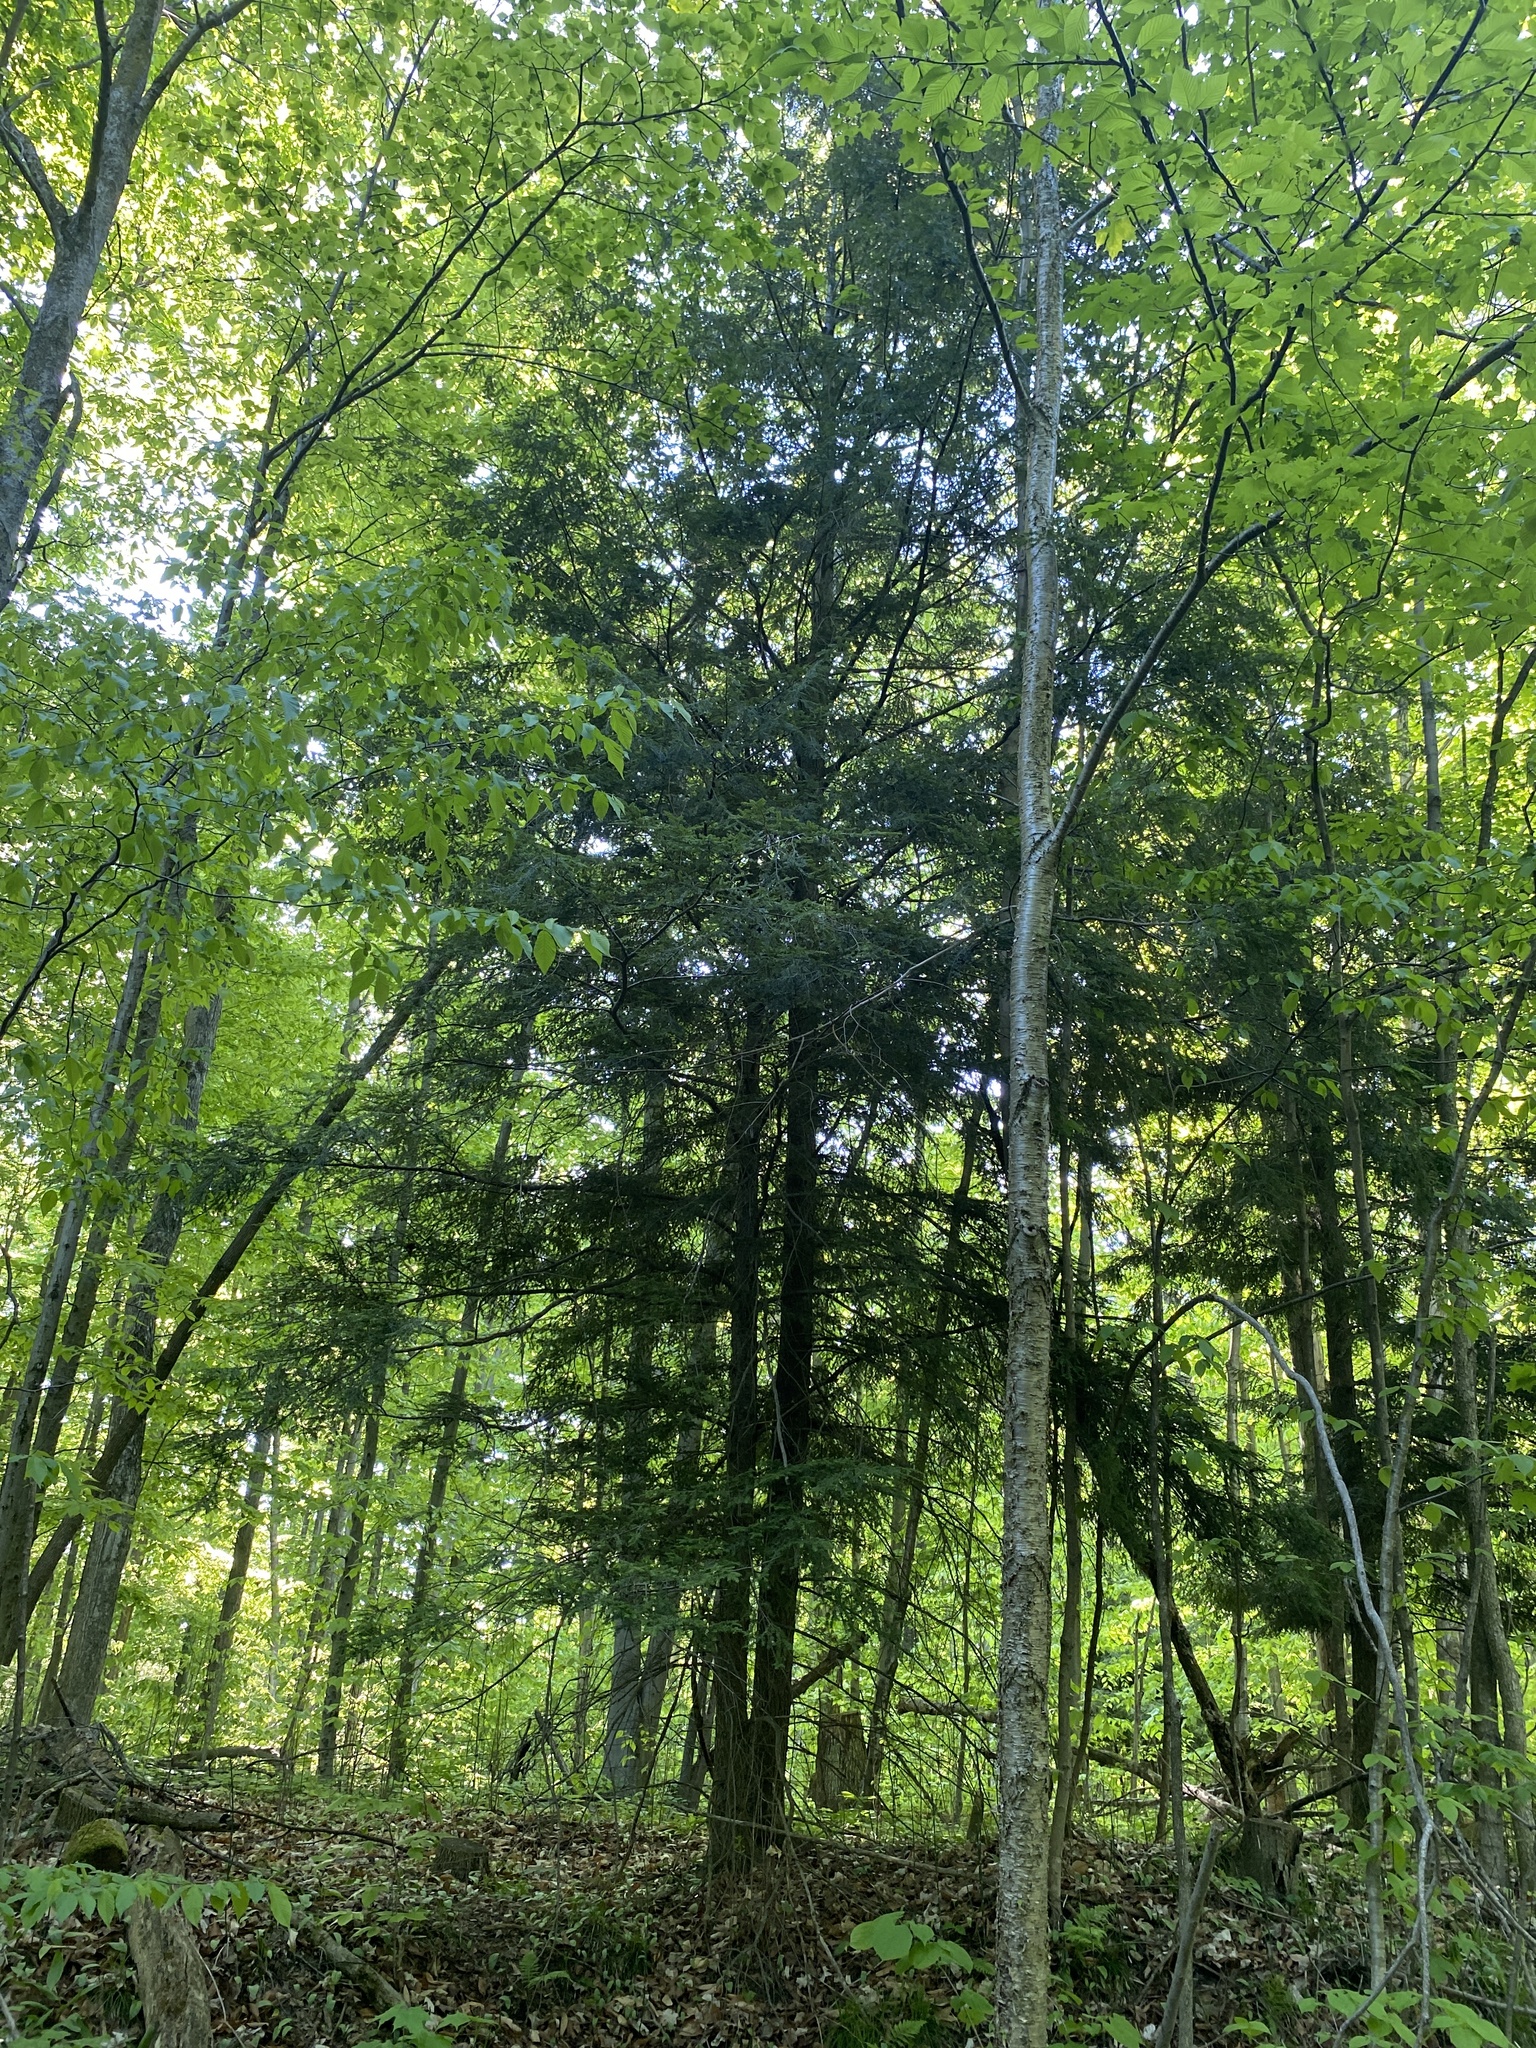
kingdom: Plantae
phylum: Tracheophyta
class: Pinopsida
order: Pinales
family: Pinaceae
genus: Tsuga
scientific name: Tsuga canadensis
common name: Eastern hemlock
